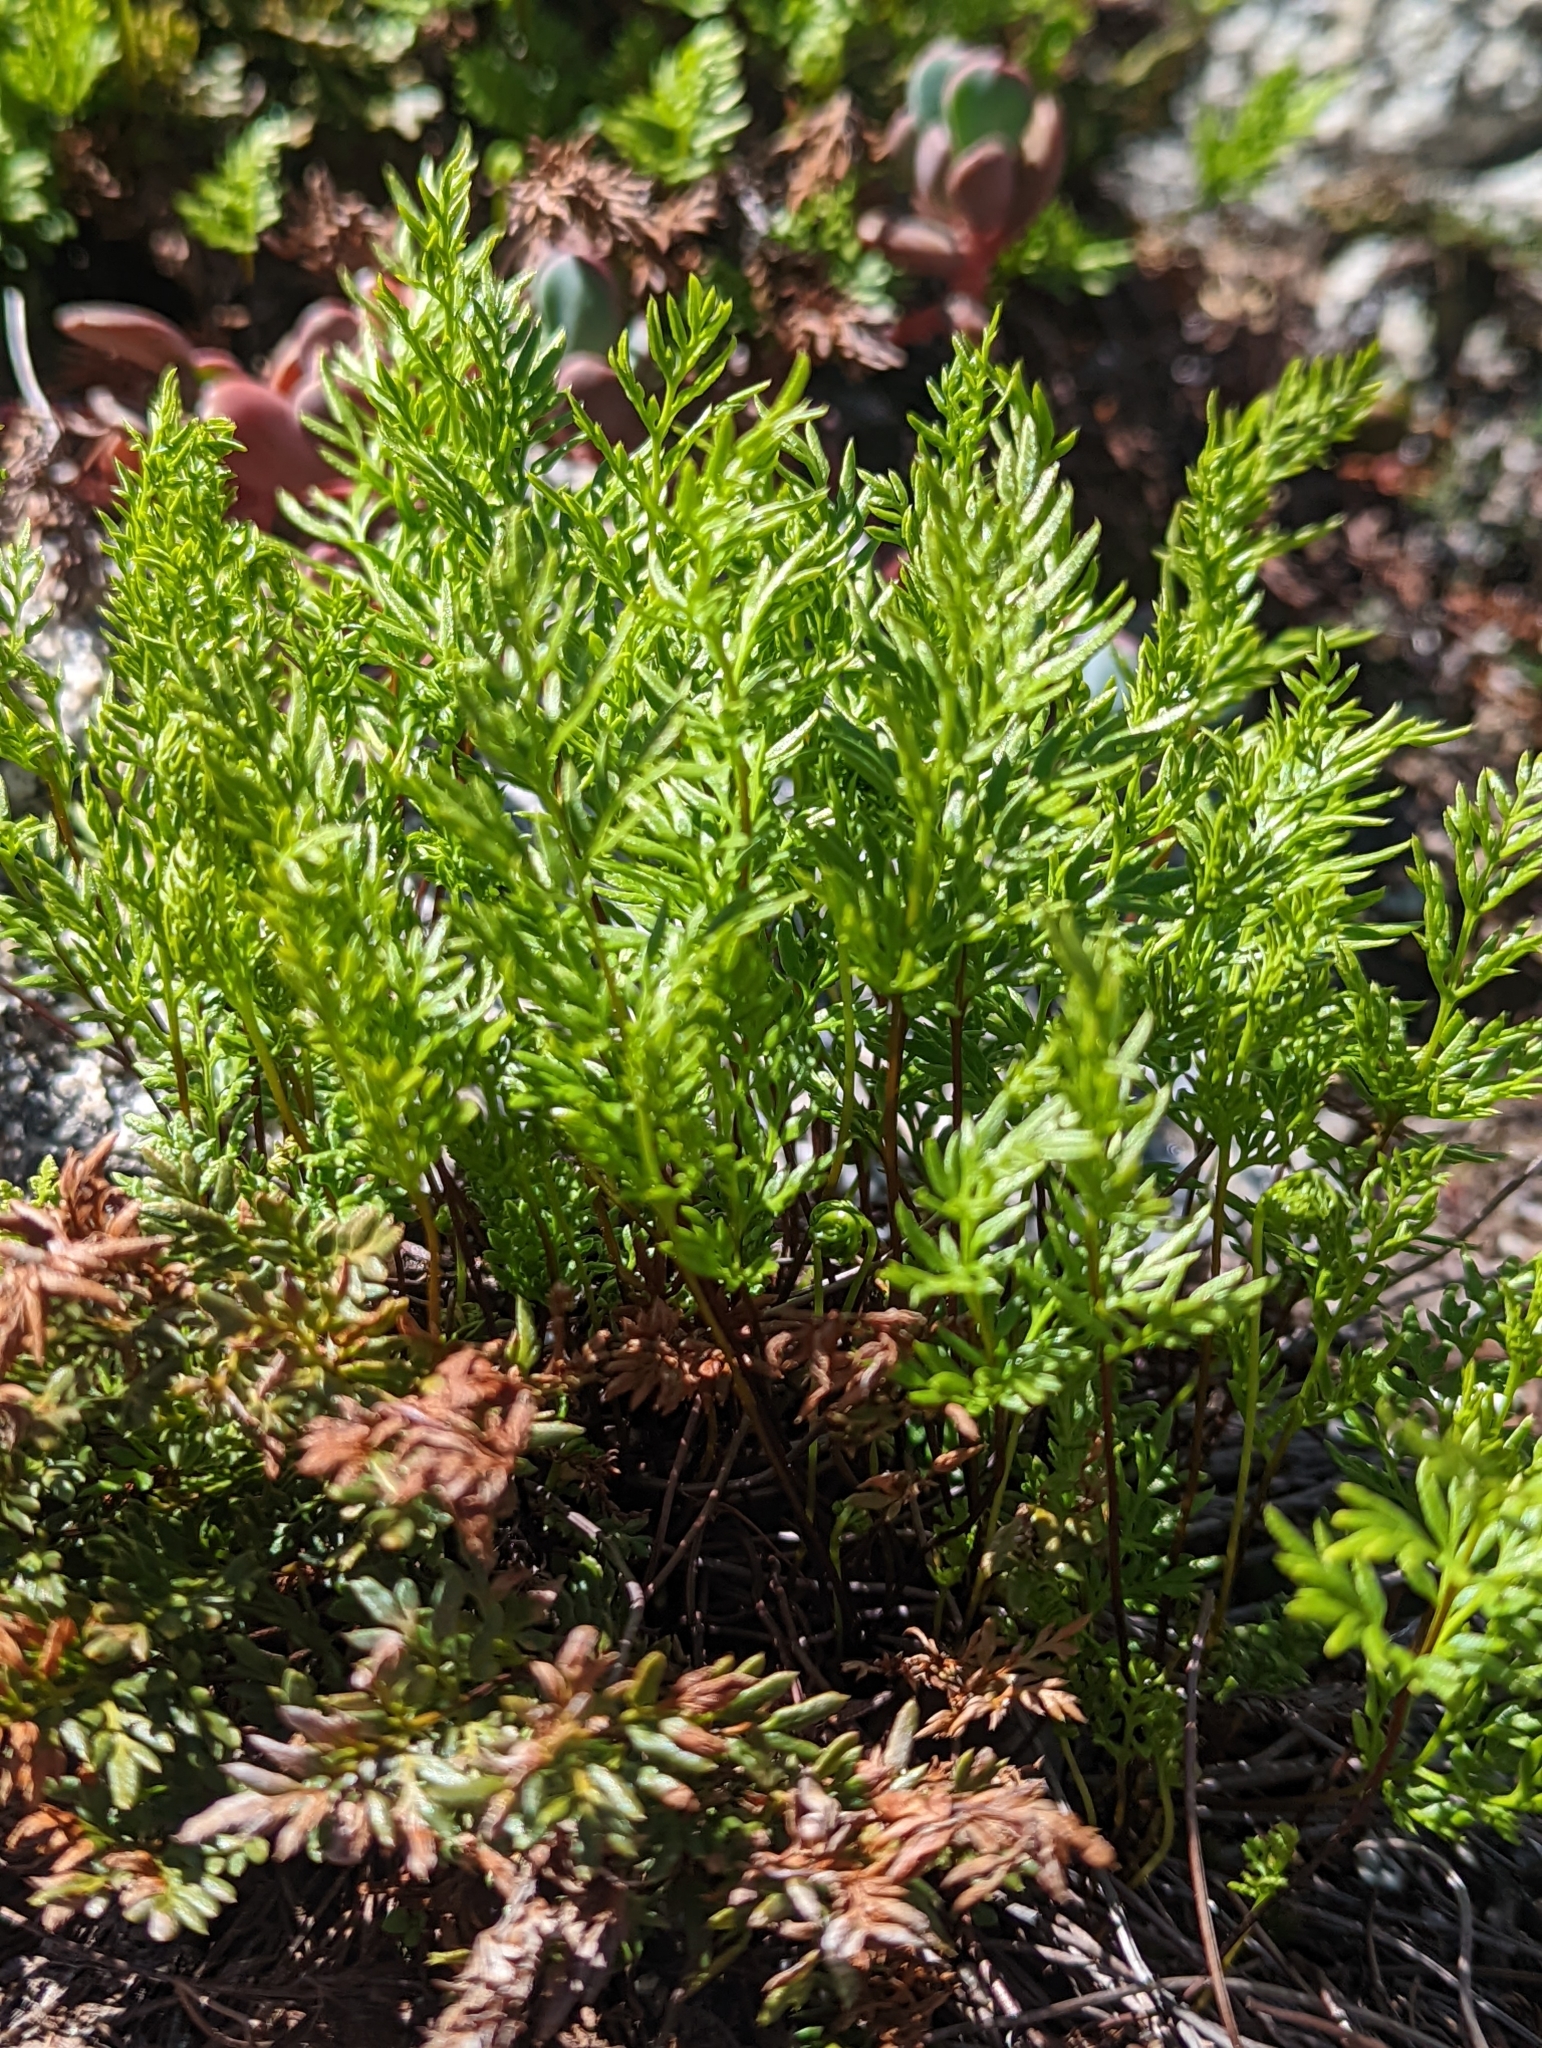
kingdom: Plantae
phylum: Tracheophyta
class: Polypodiopsida
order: Polypodiales
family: Pteridaceae
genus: Aspidotis
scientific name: Aspidotis densa
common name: Indian's dream
